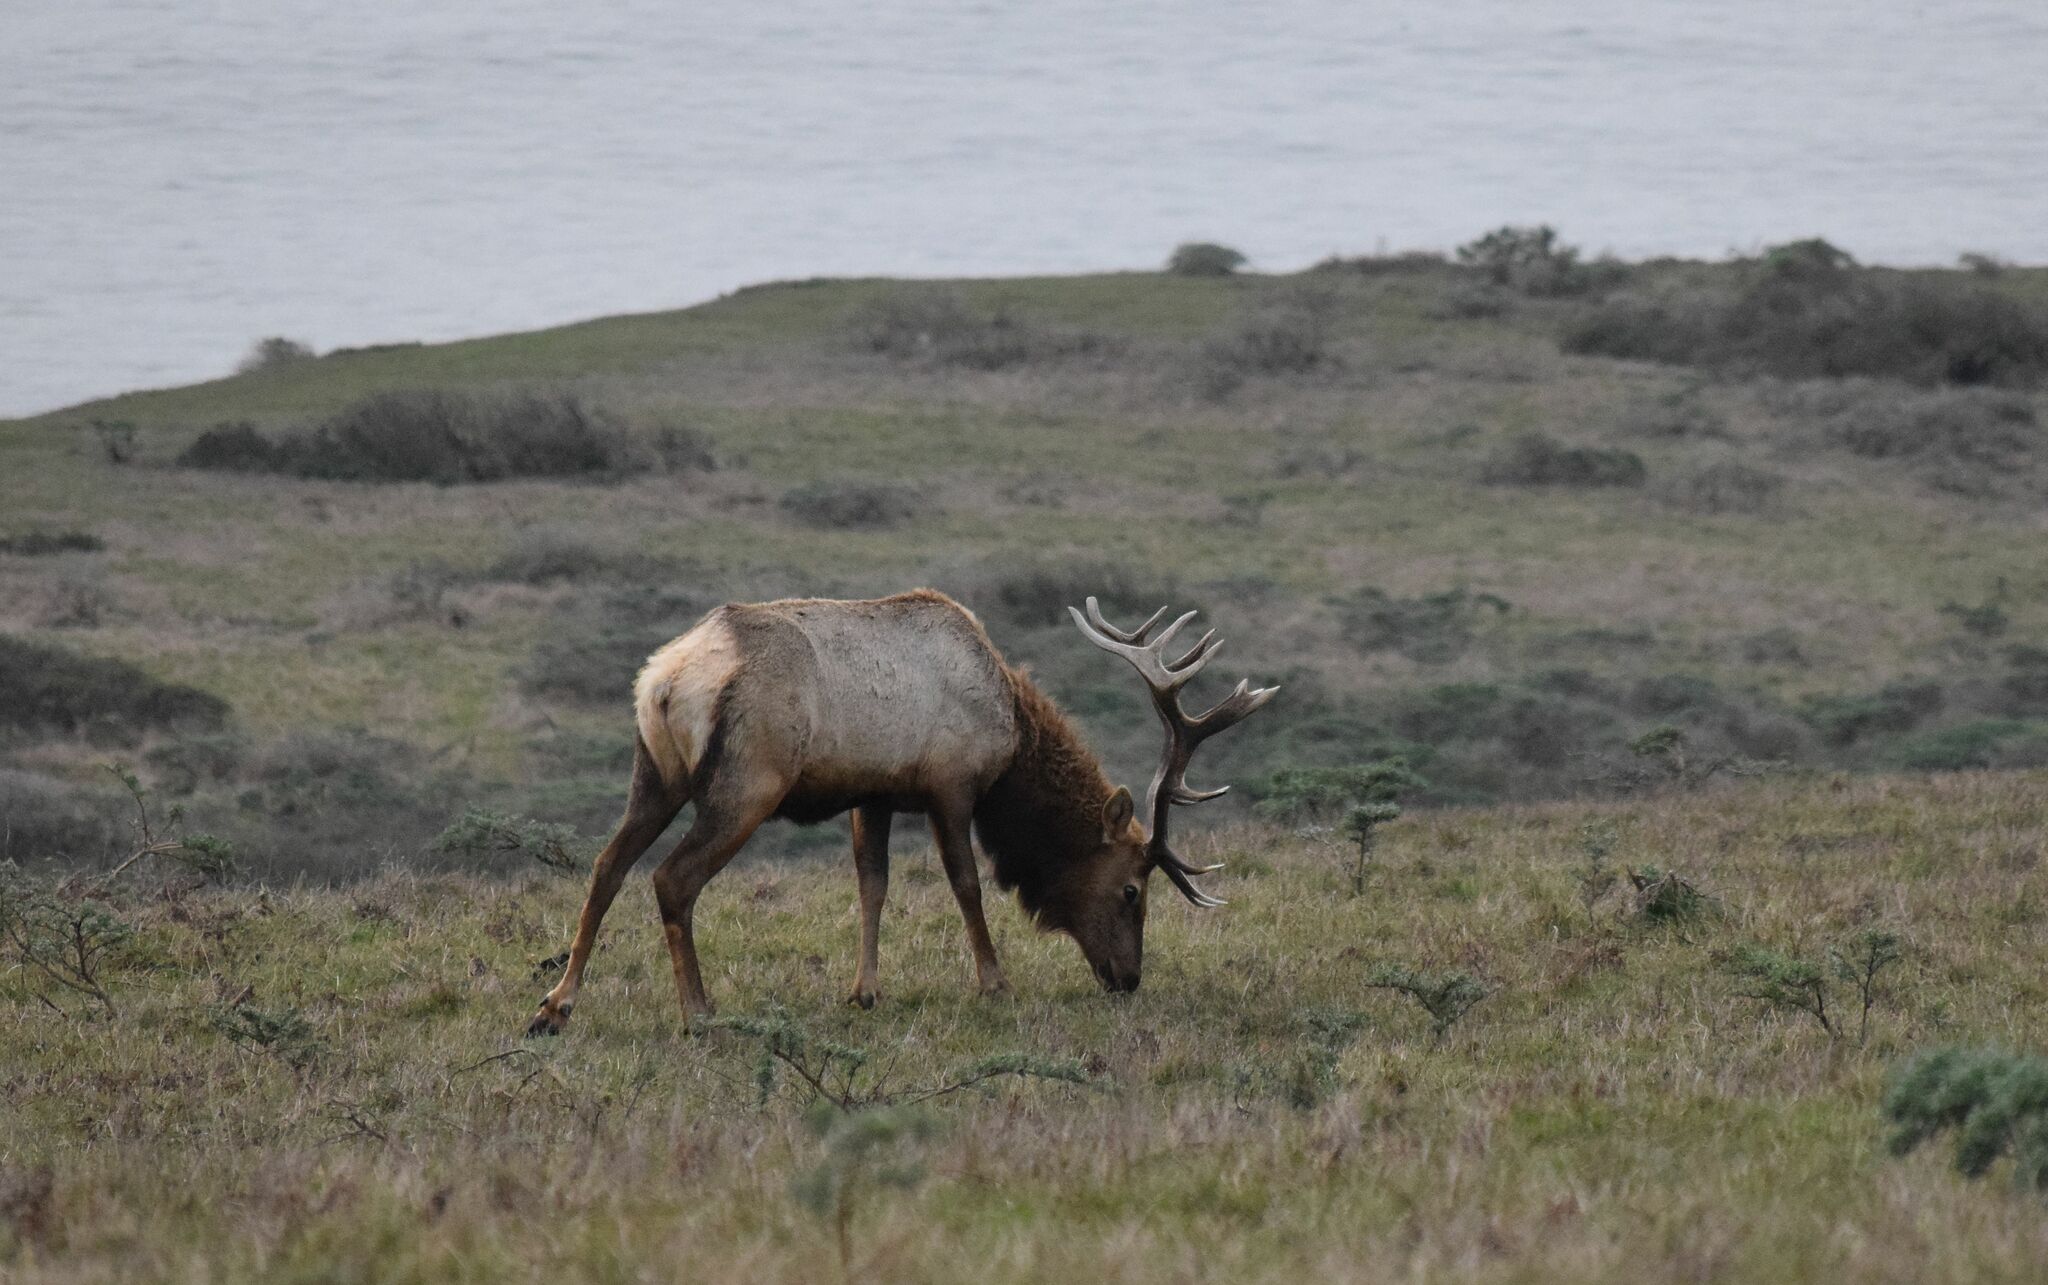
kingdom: Animalia
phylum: Chordata
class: Mammalia
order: Artiodactyla
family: Cervidae
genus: Cervus
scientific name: Cervus elaphus
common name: Red deer
